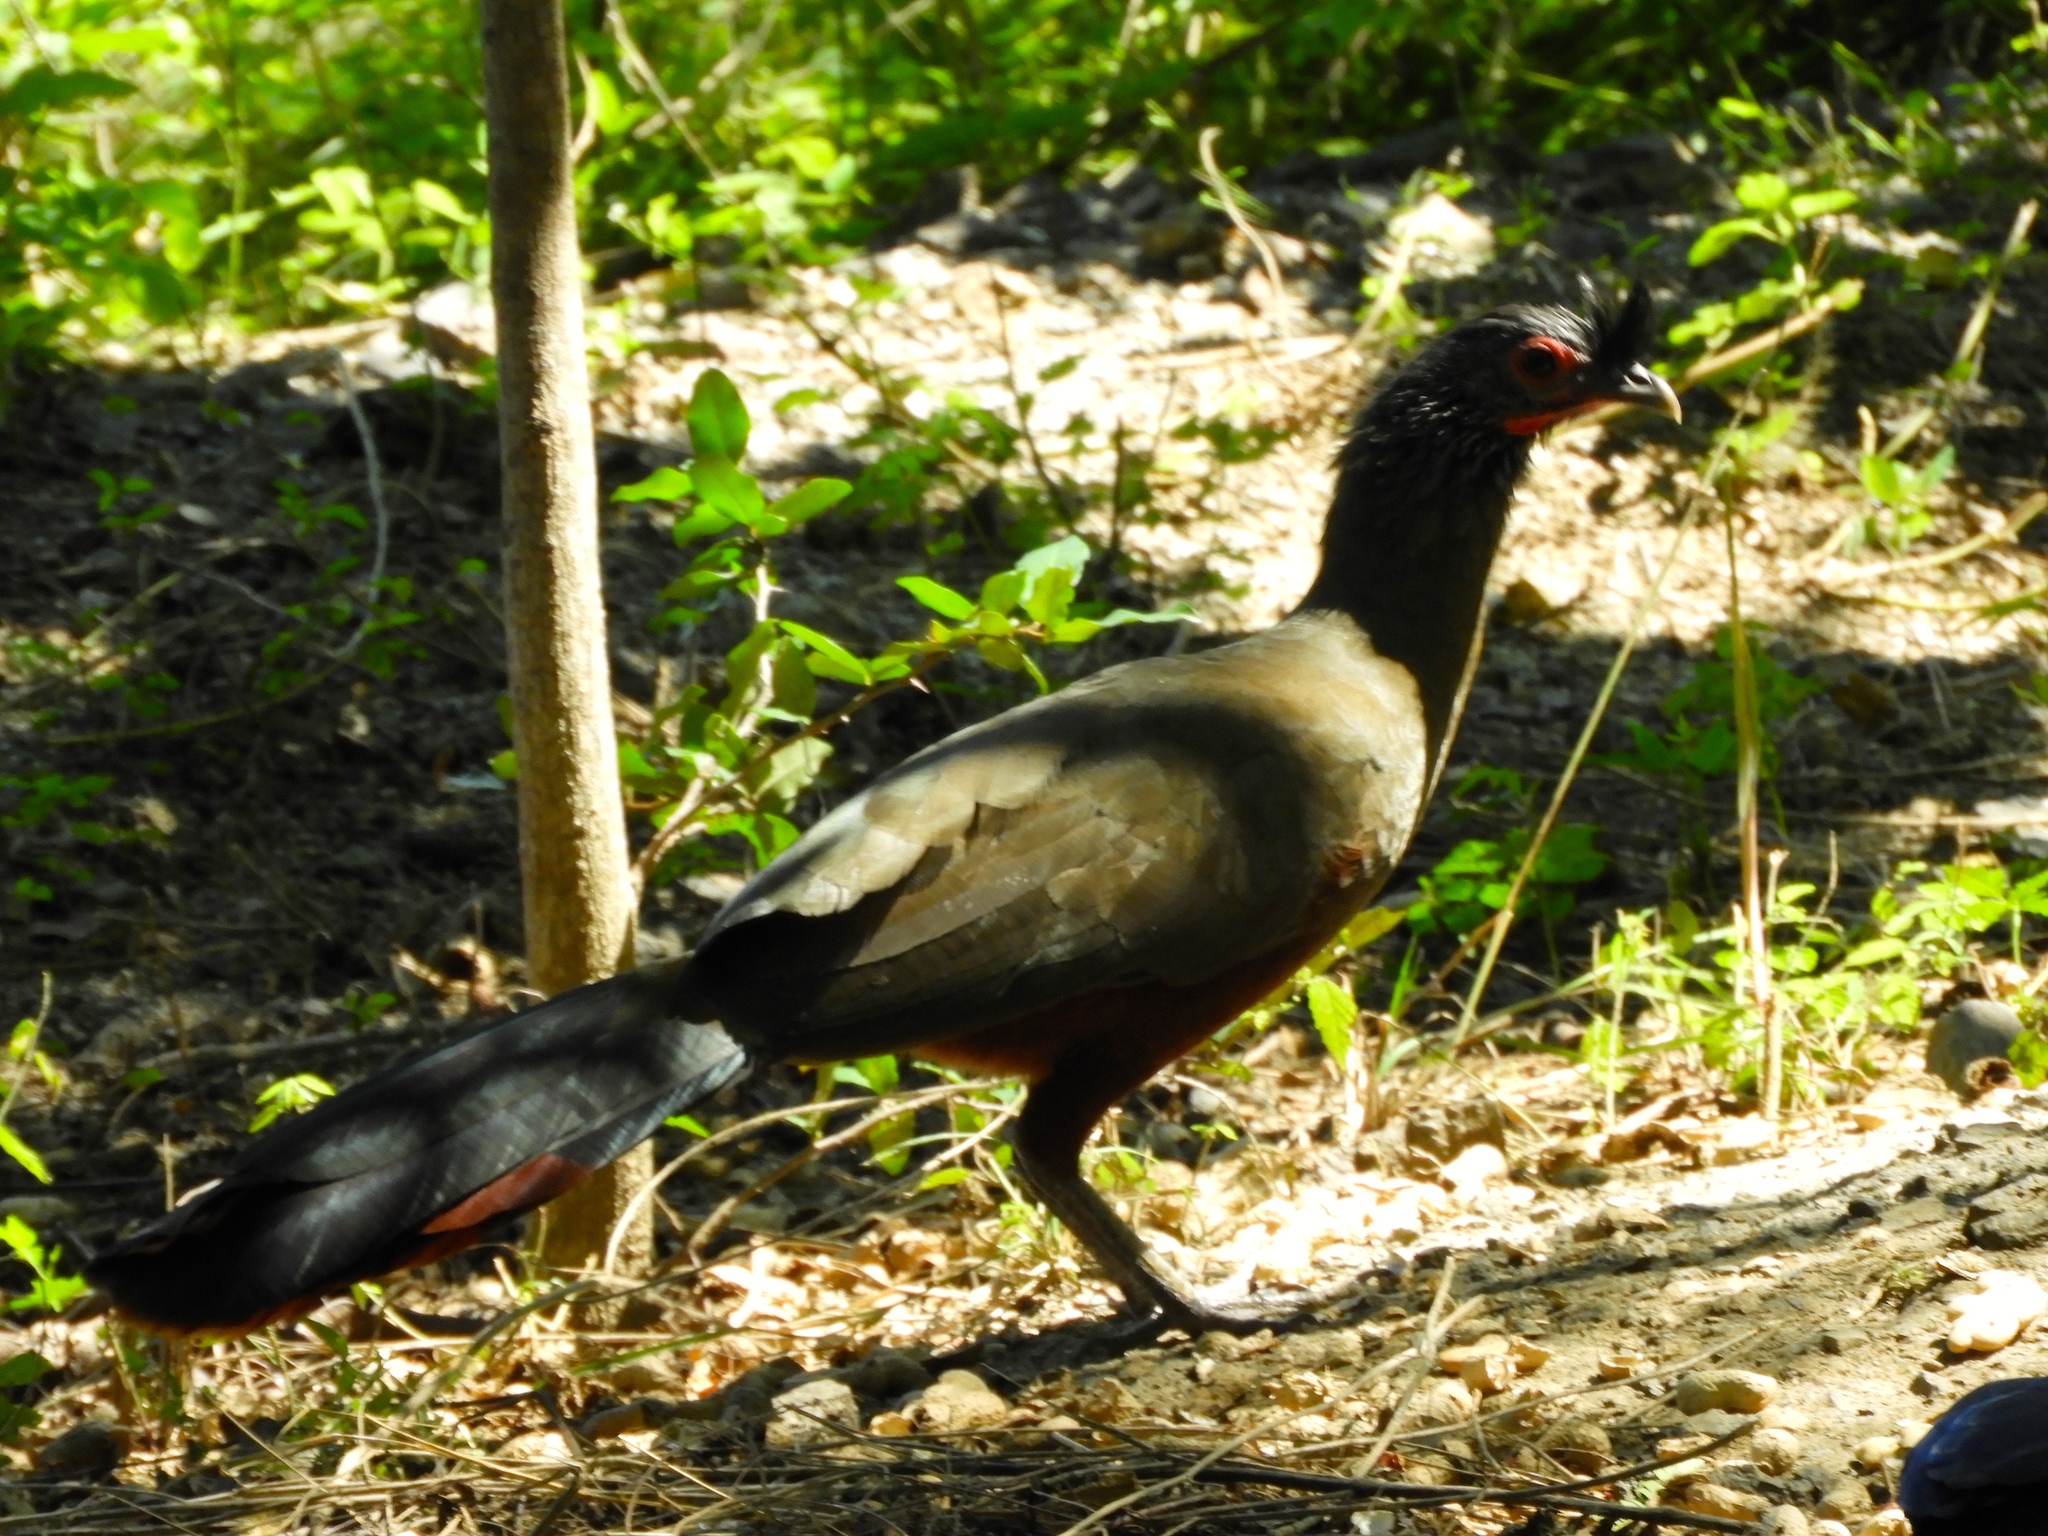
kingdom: Animalia
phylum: Chordata
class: Aves
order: Galliformes
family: Cracidae
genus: Ortalis
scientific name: Ortalis wagleri
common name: Rufous-bellied chachalaca
